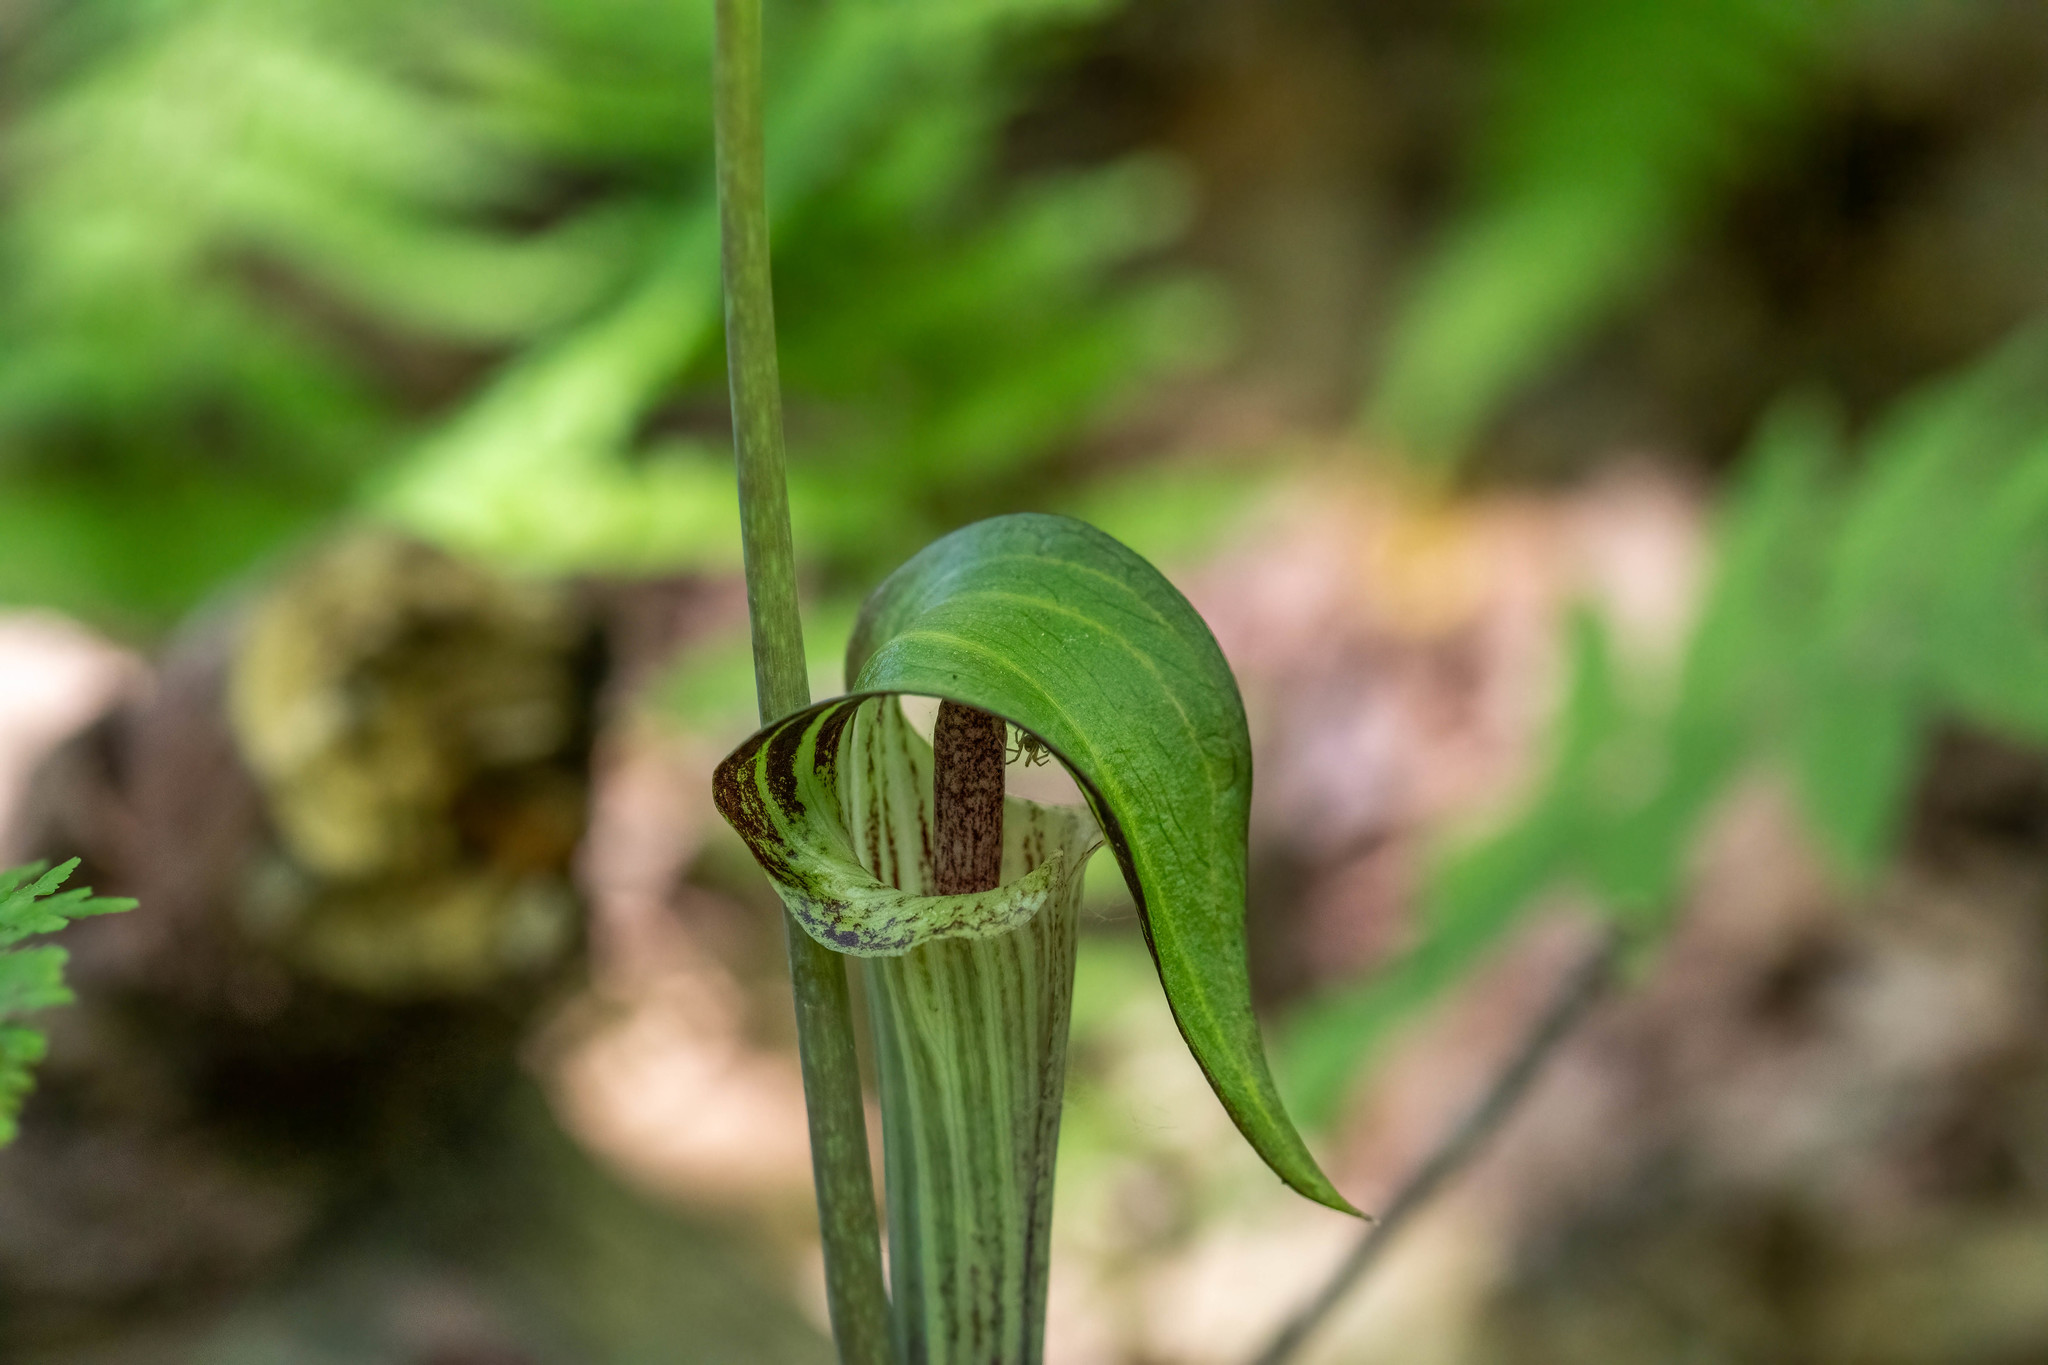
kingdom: Plantae
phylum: Tracheophyta
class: Liliopsida
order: Alismatales
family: Araceae
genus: Arisaema
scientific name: Arisaema triphyllum
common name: Jack-in-the-pulpit
